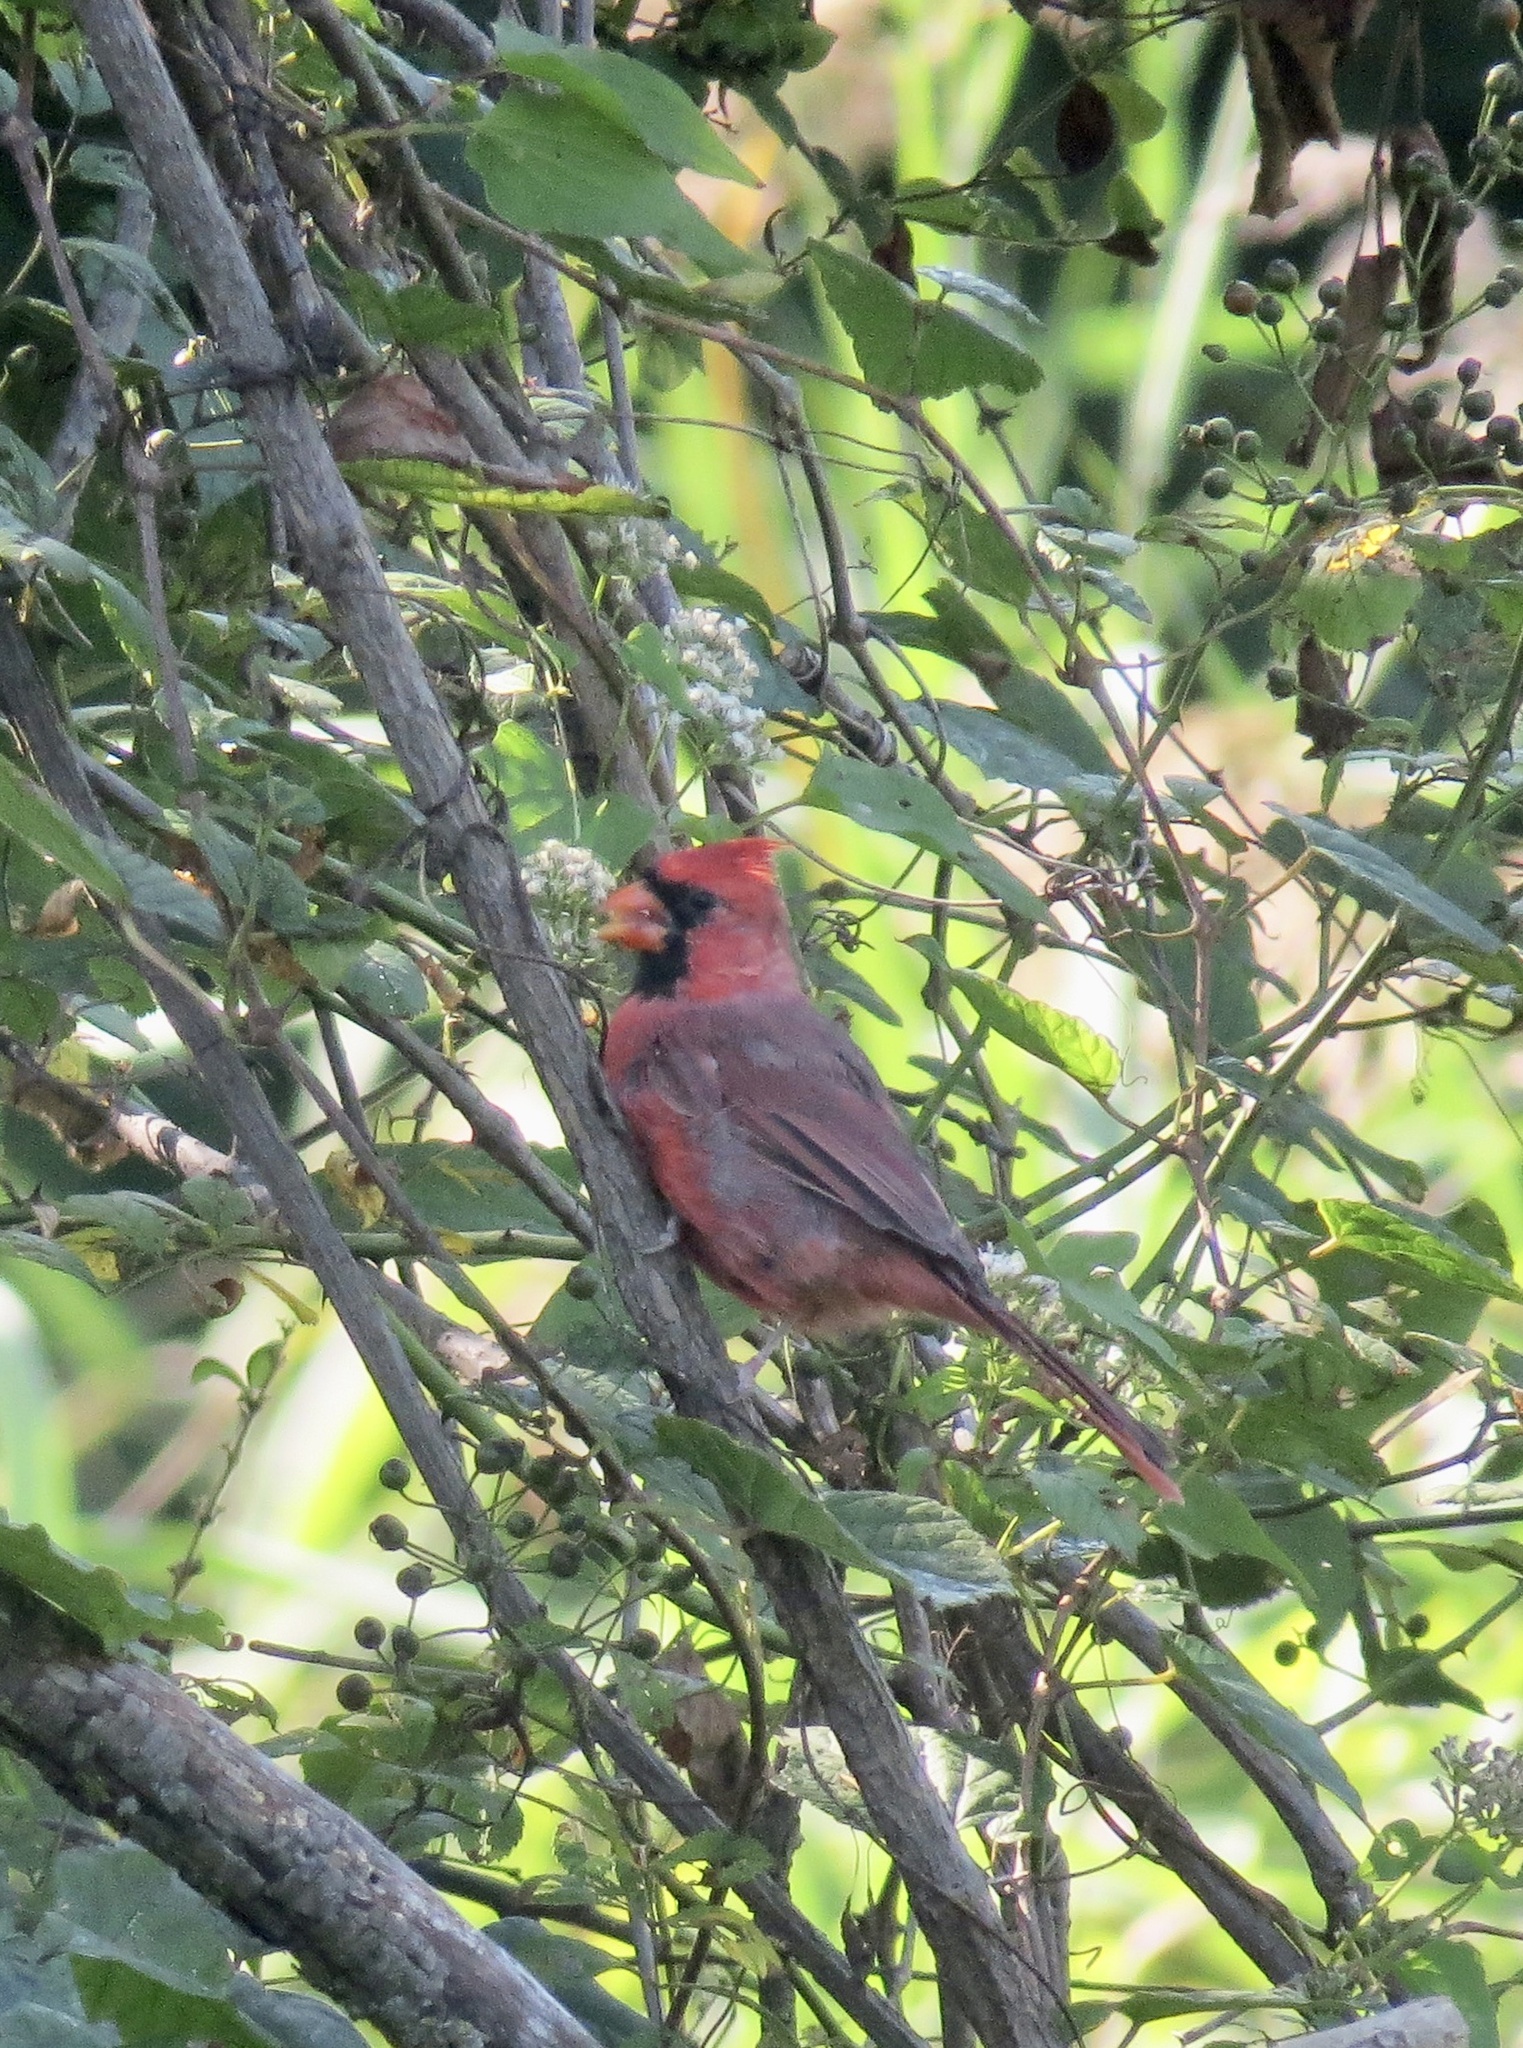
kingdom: Animalia
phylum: Chordata
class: Aves
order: Passeriformes
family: Cardinalidae
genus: Cardinalis
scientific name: Cardinalis cardinalis
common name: Northern cardinal
